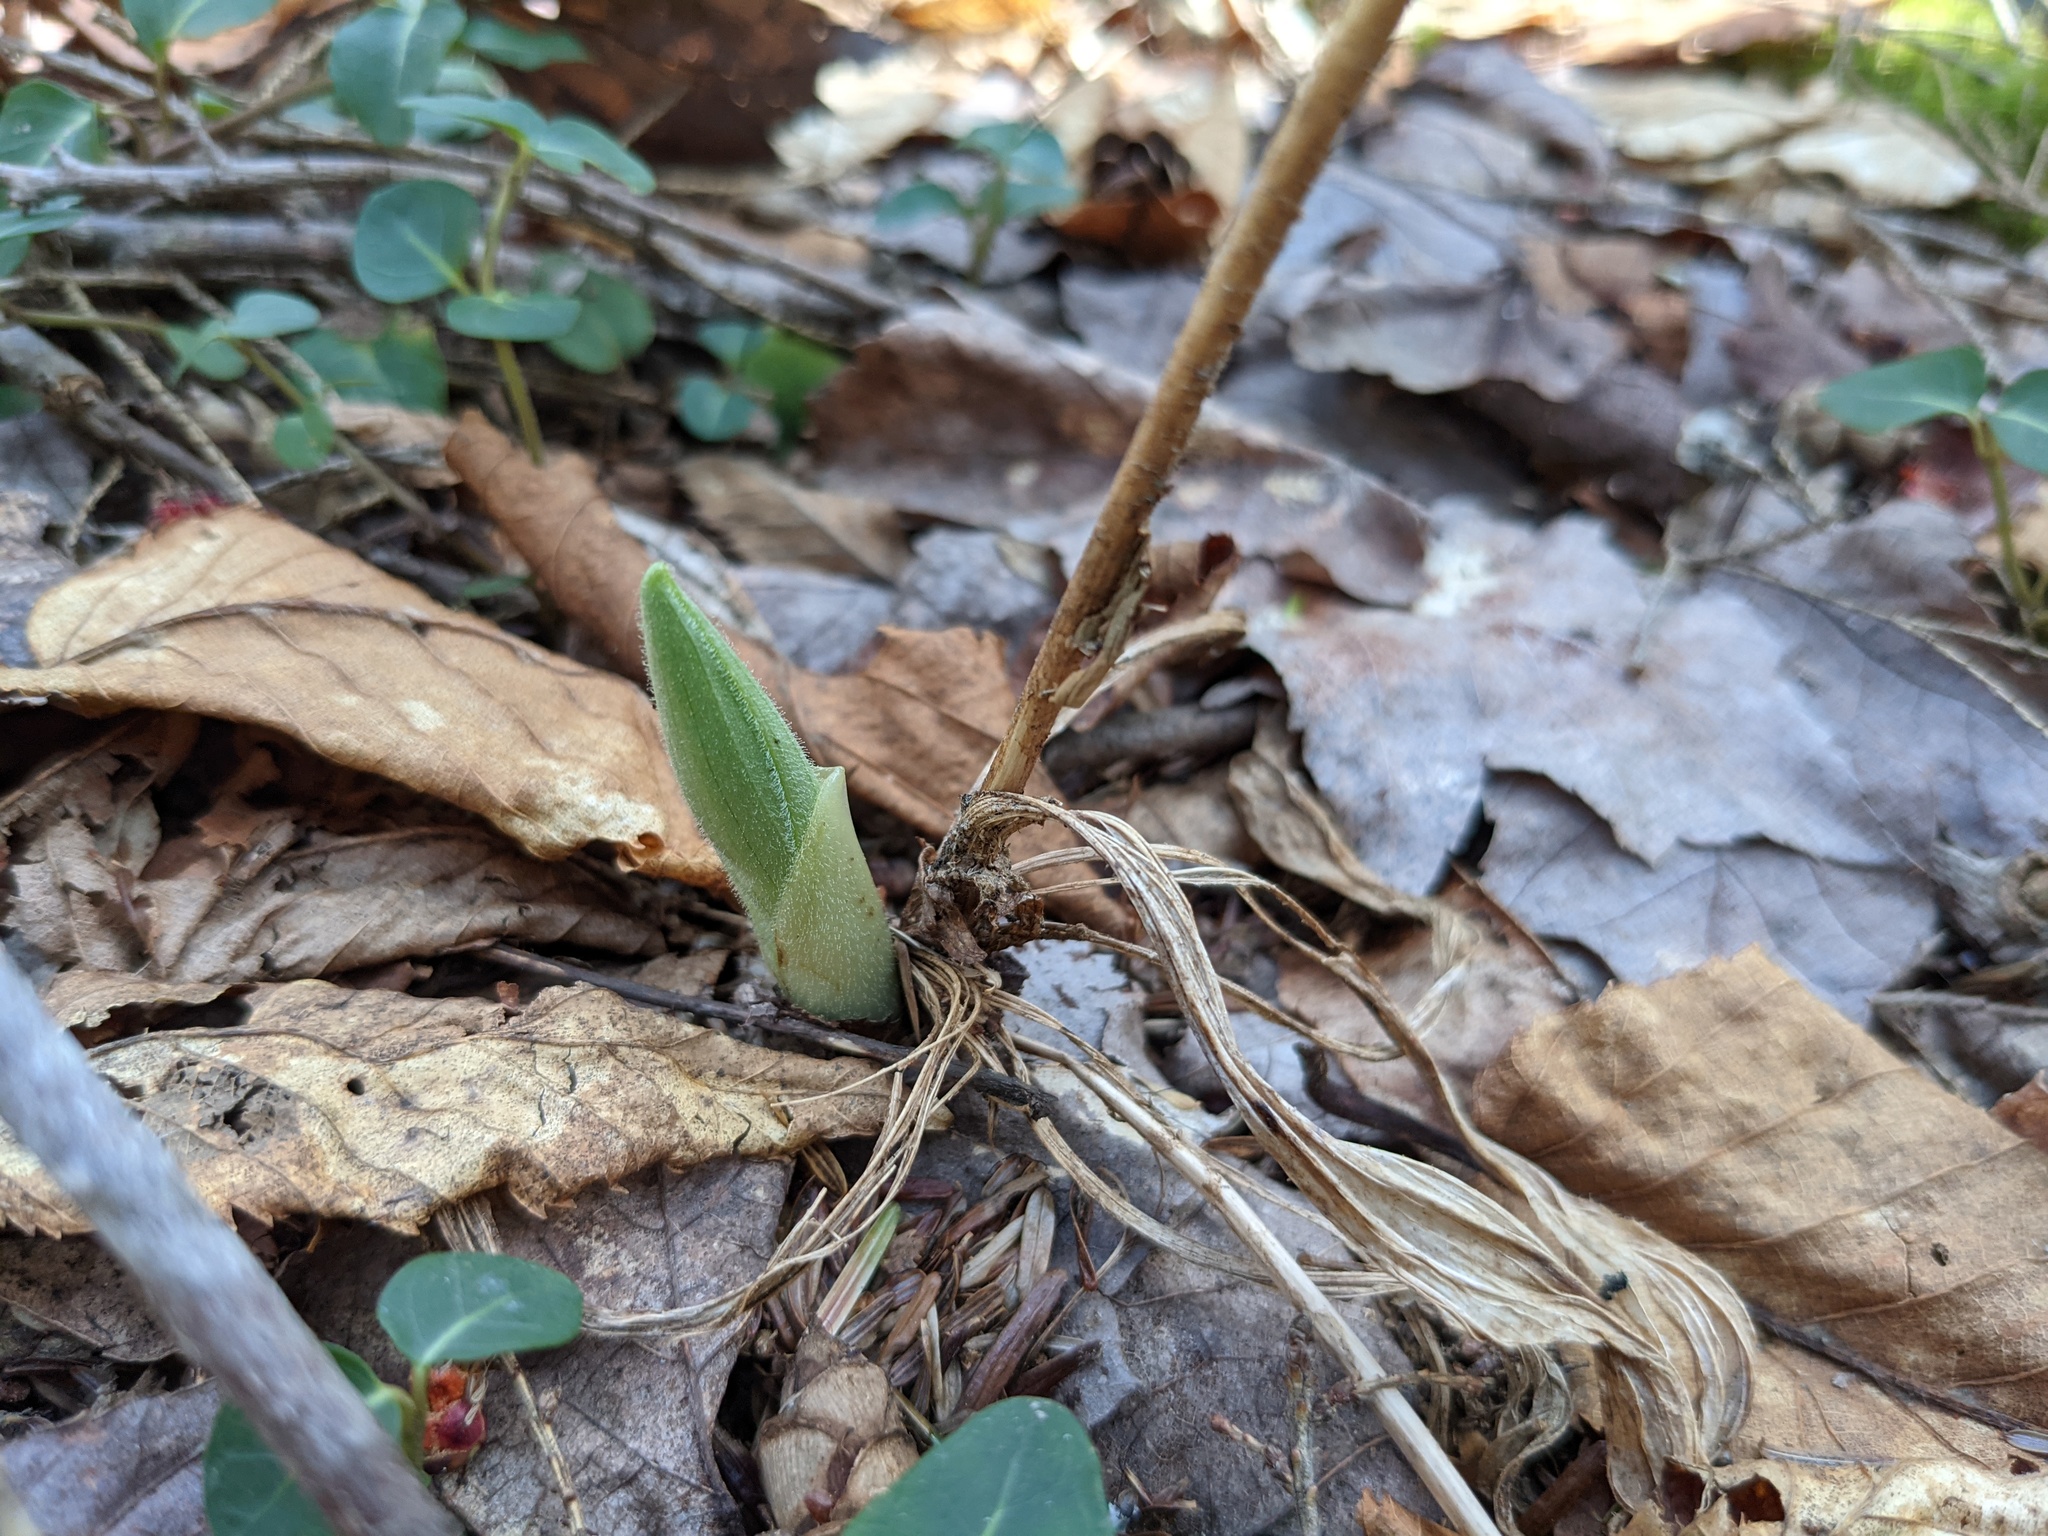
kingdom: Plantae
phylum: Tracheophyta
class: Liliopsida
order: Asparagales
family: Orchidaceae
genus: Cypripedium
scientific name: Cypripedium acaule
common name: Pink lady's-slipper
